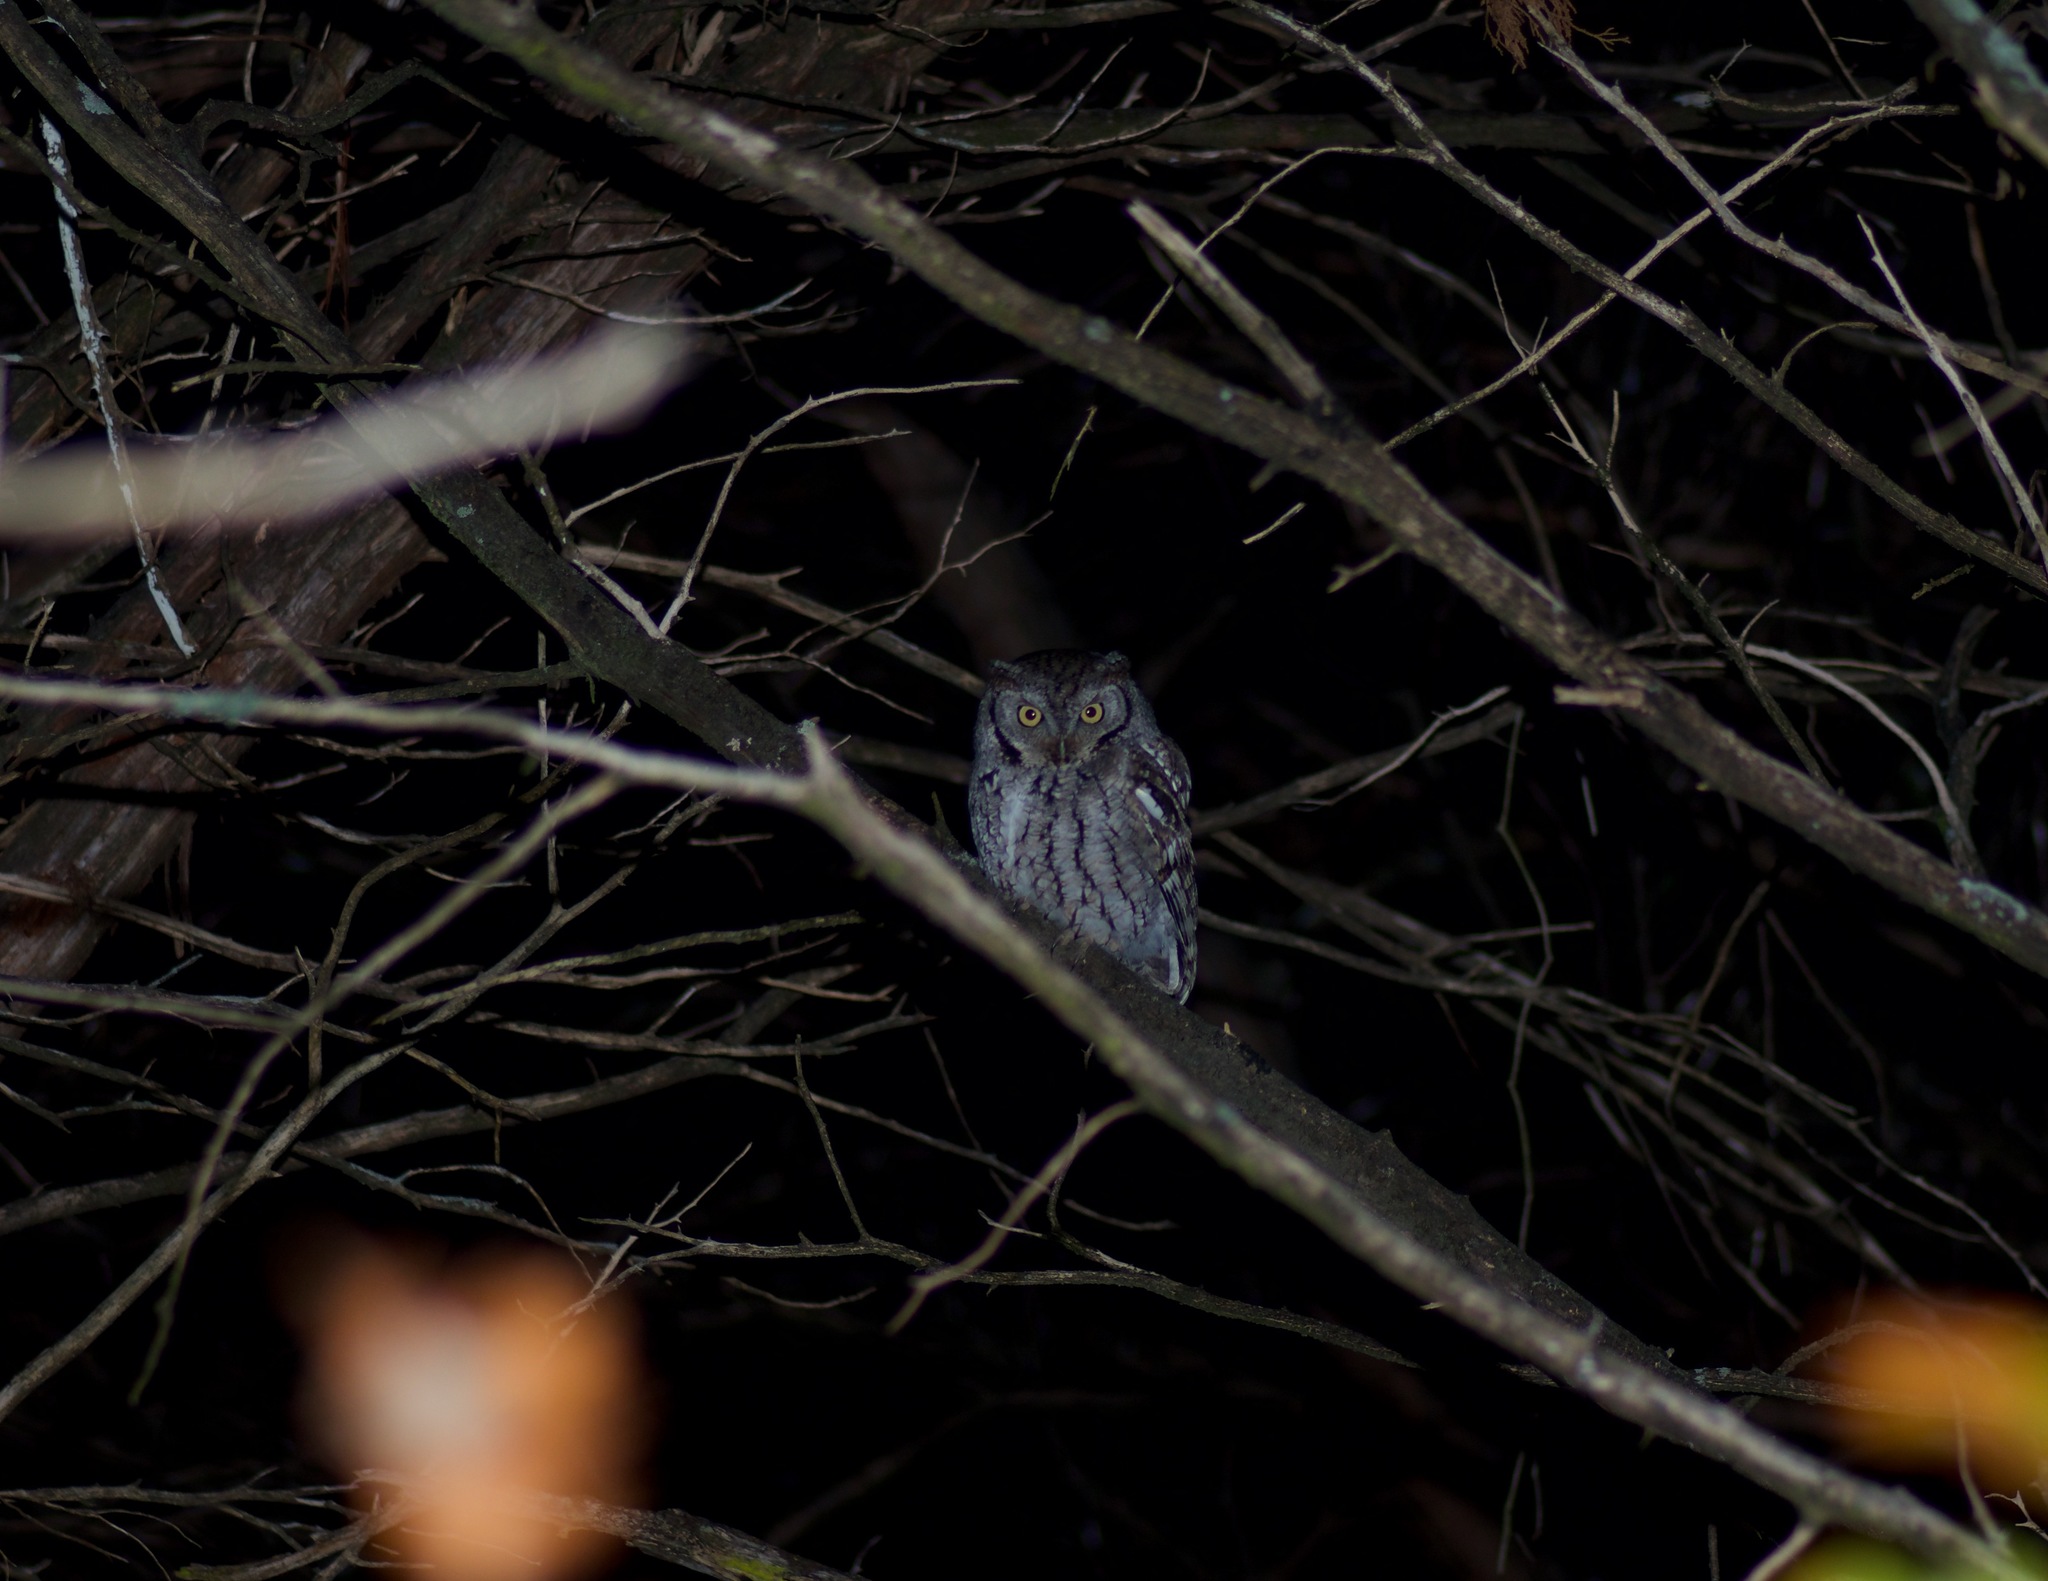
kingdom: Animalia
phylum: Chordata
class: Aves
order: Strigiformes
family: Strigidae
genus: Megascops
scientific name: Megascops asio
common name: Eastern screech-owl
